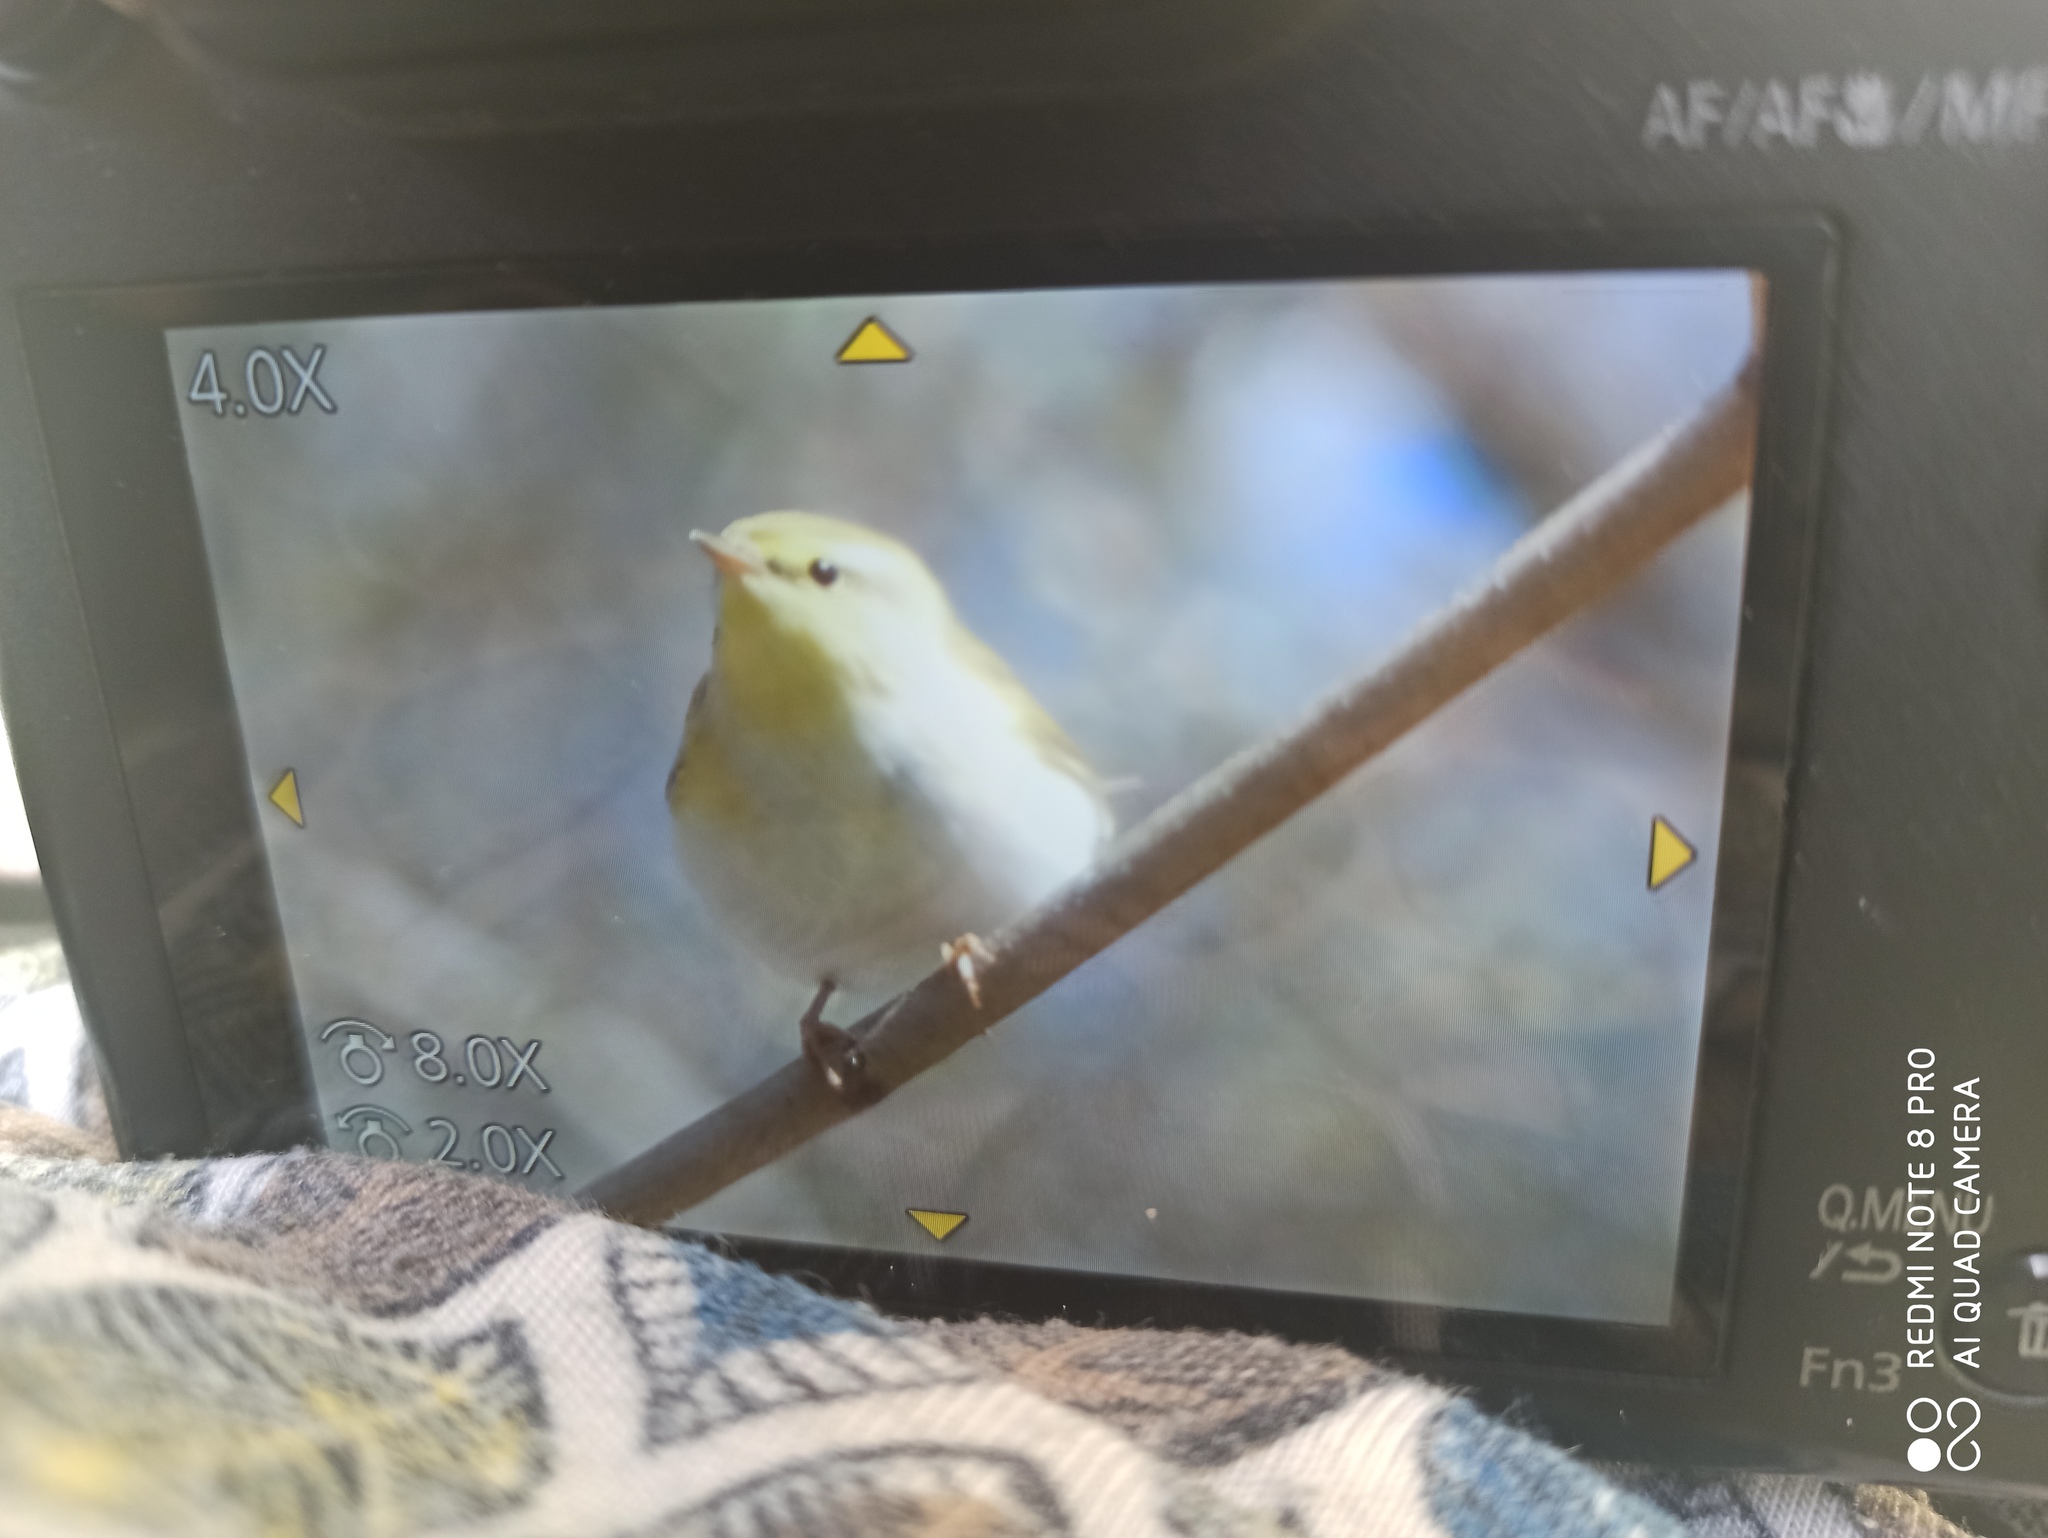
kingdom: Animalia
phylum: Chordata
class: Aves
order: Passeriformes
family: Phylloscopidae
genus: Phylloscopus
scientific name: Phylloscopus sibillatrix
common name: Wood warbler
